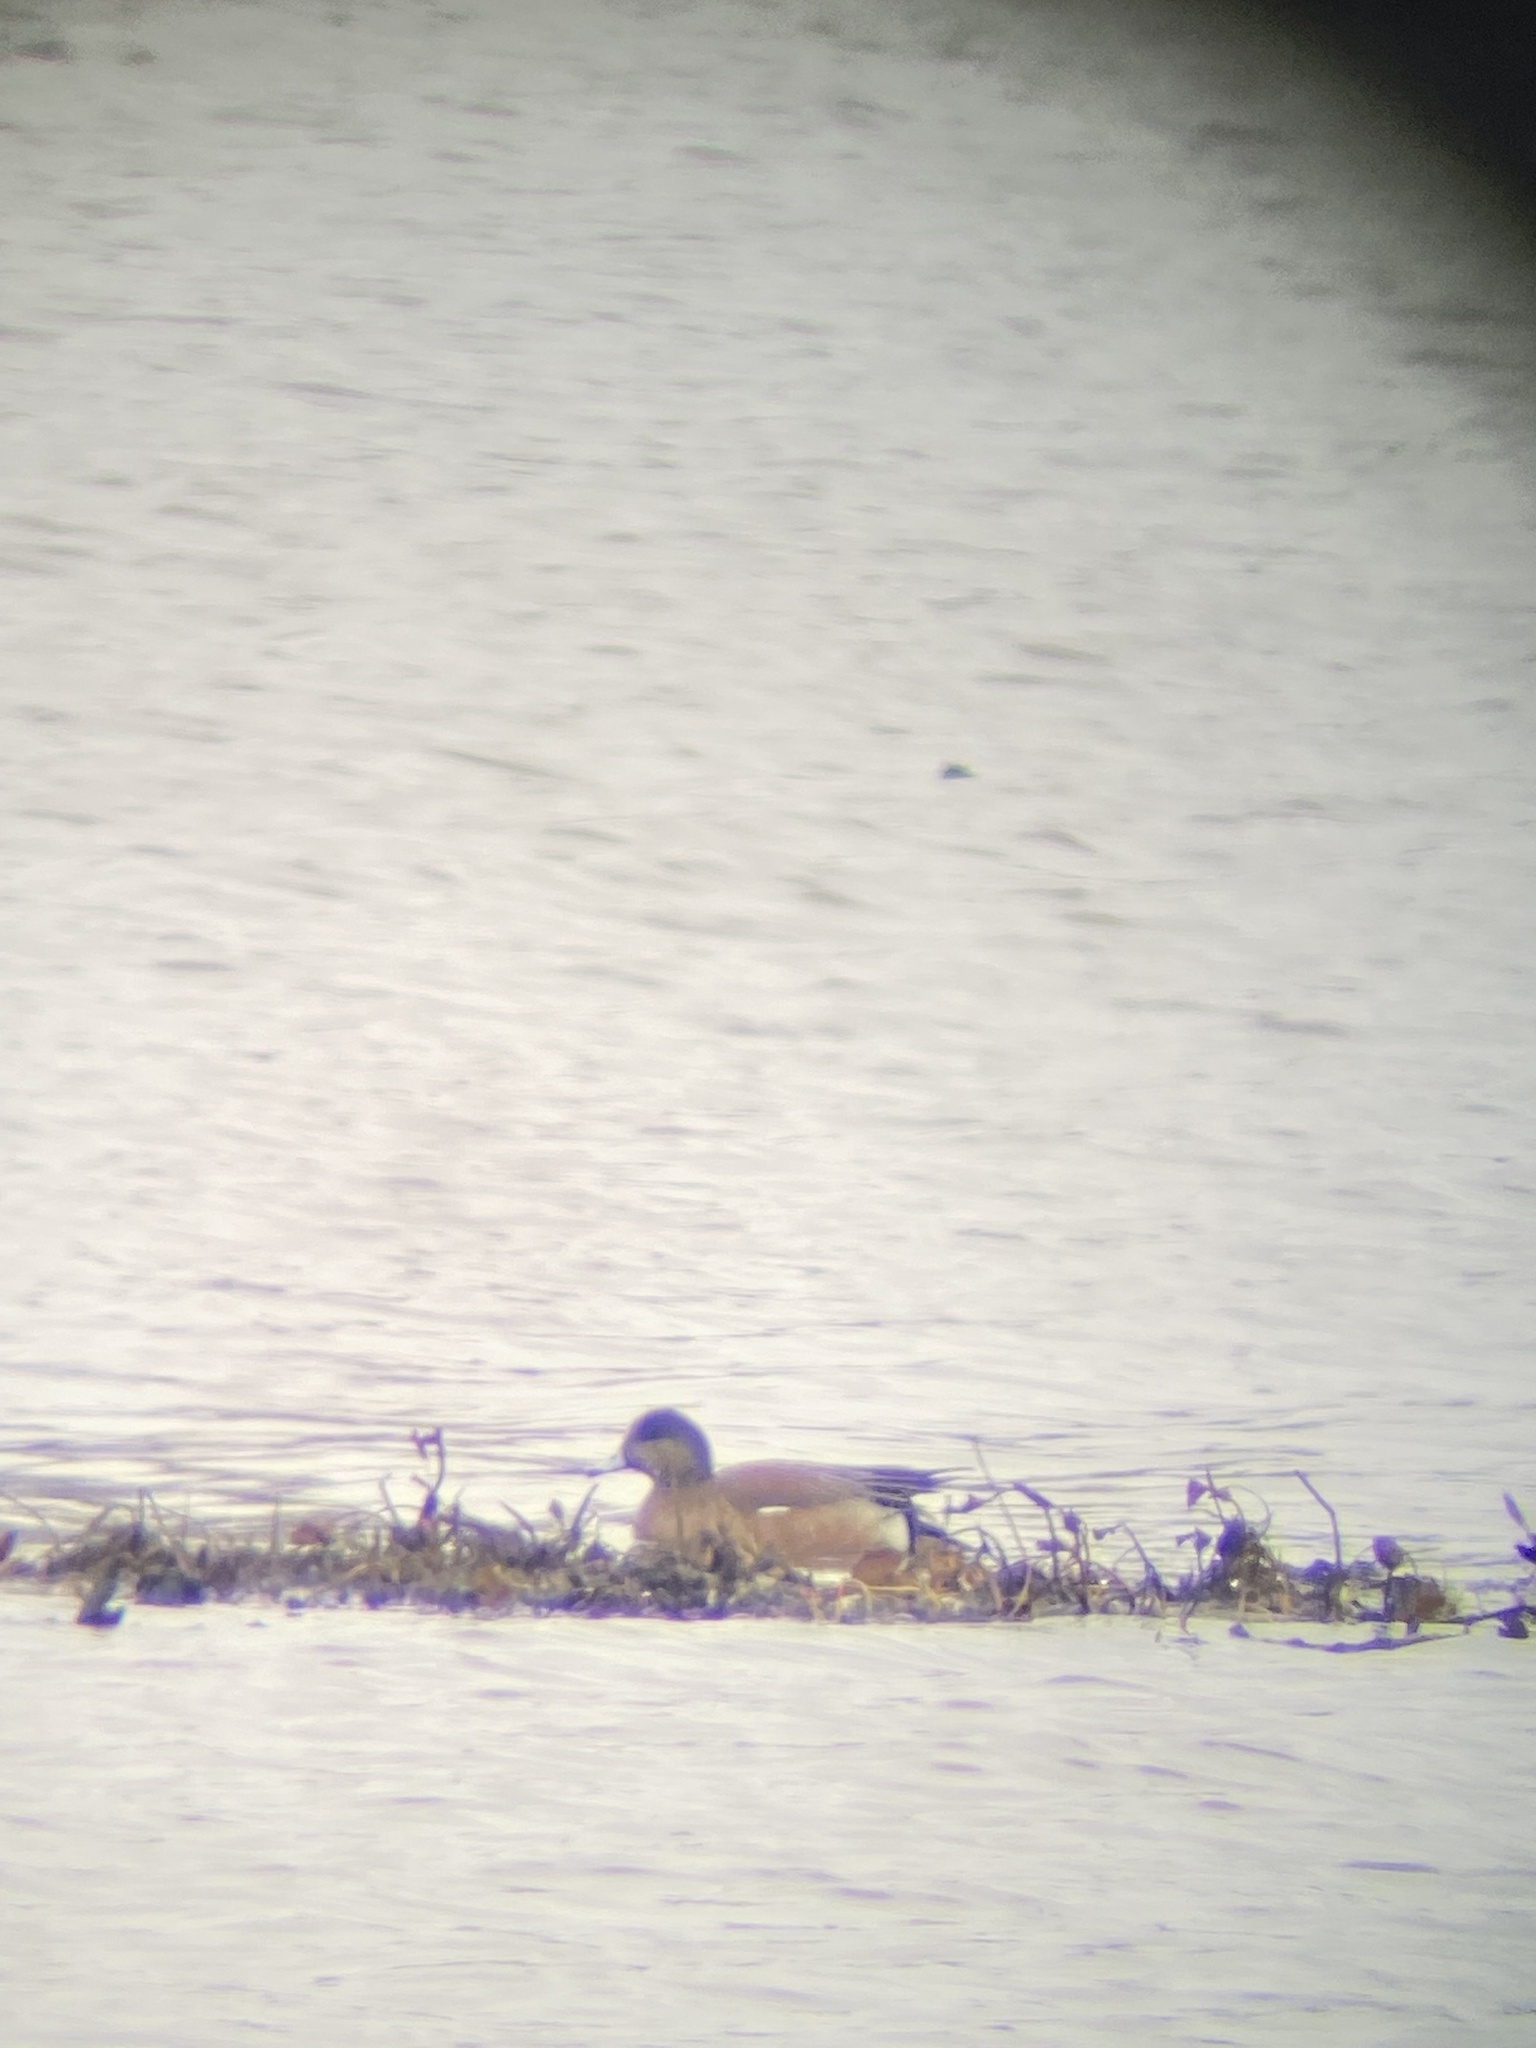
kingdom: Animalia
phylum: Chordata
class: Aves
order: Anseriformes
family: Anatidae
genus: Mareca
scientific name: Mareca americana
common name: American wigeon
